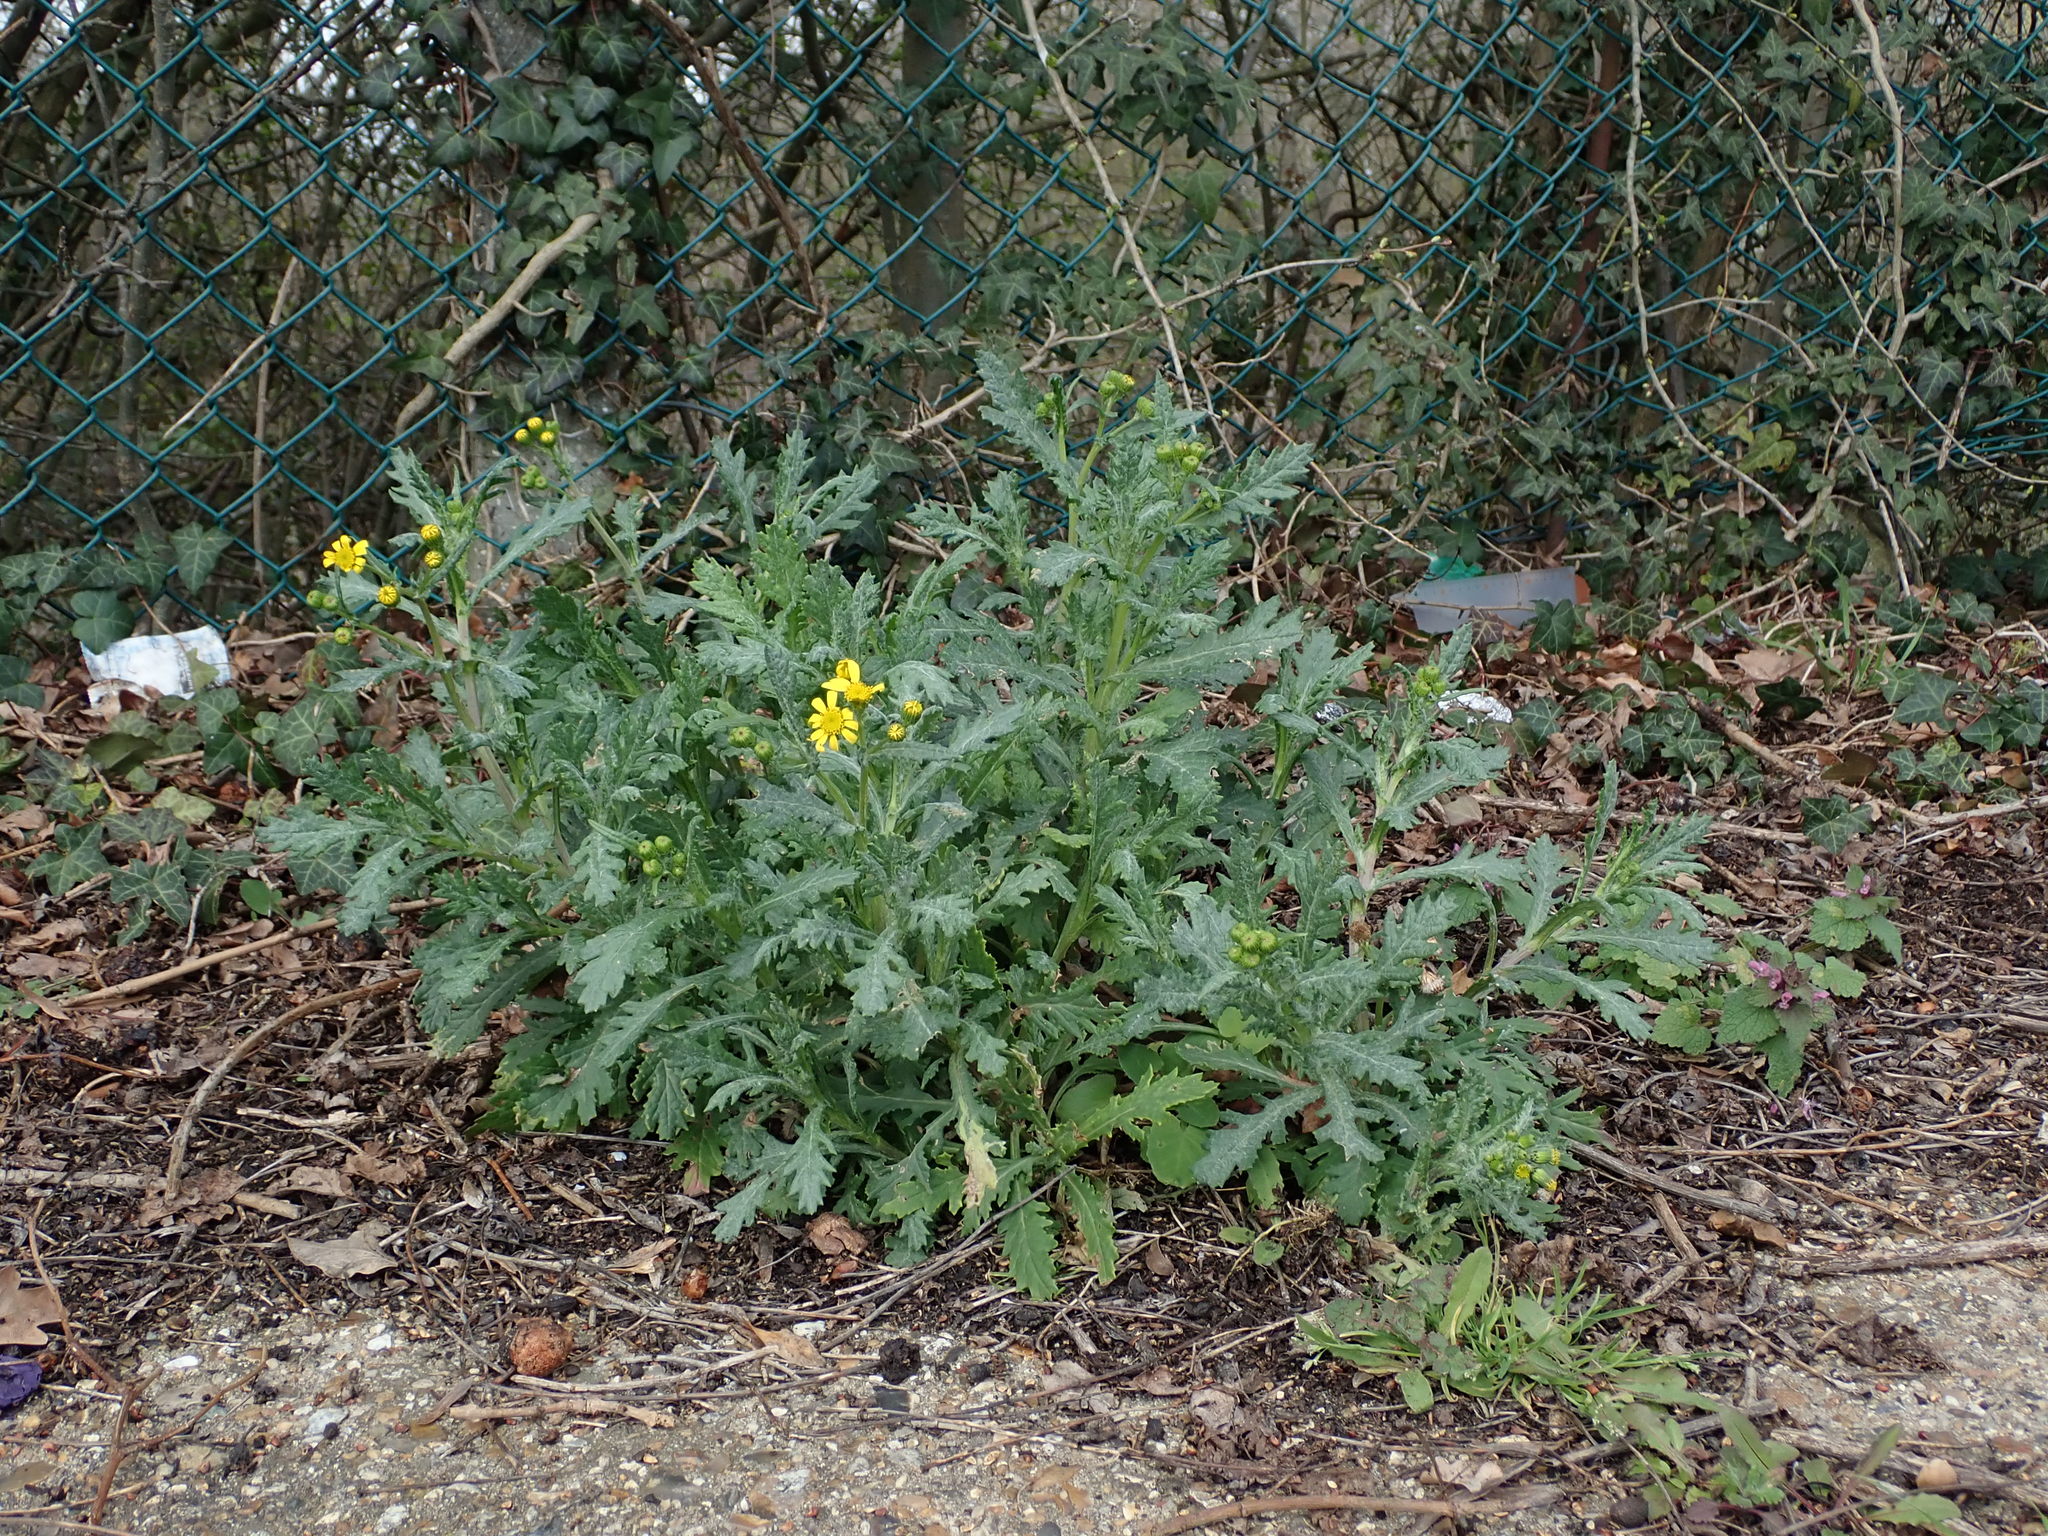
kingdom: Plantae
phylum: Tracheophyta
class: Magnoliopsida
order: Asterales
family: Asteraceae
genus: Senecio
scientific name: Senecio squalidus
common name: Oxford ragwort
